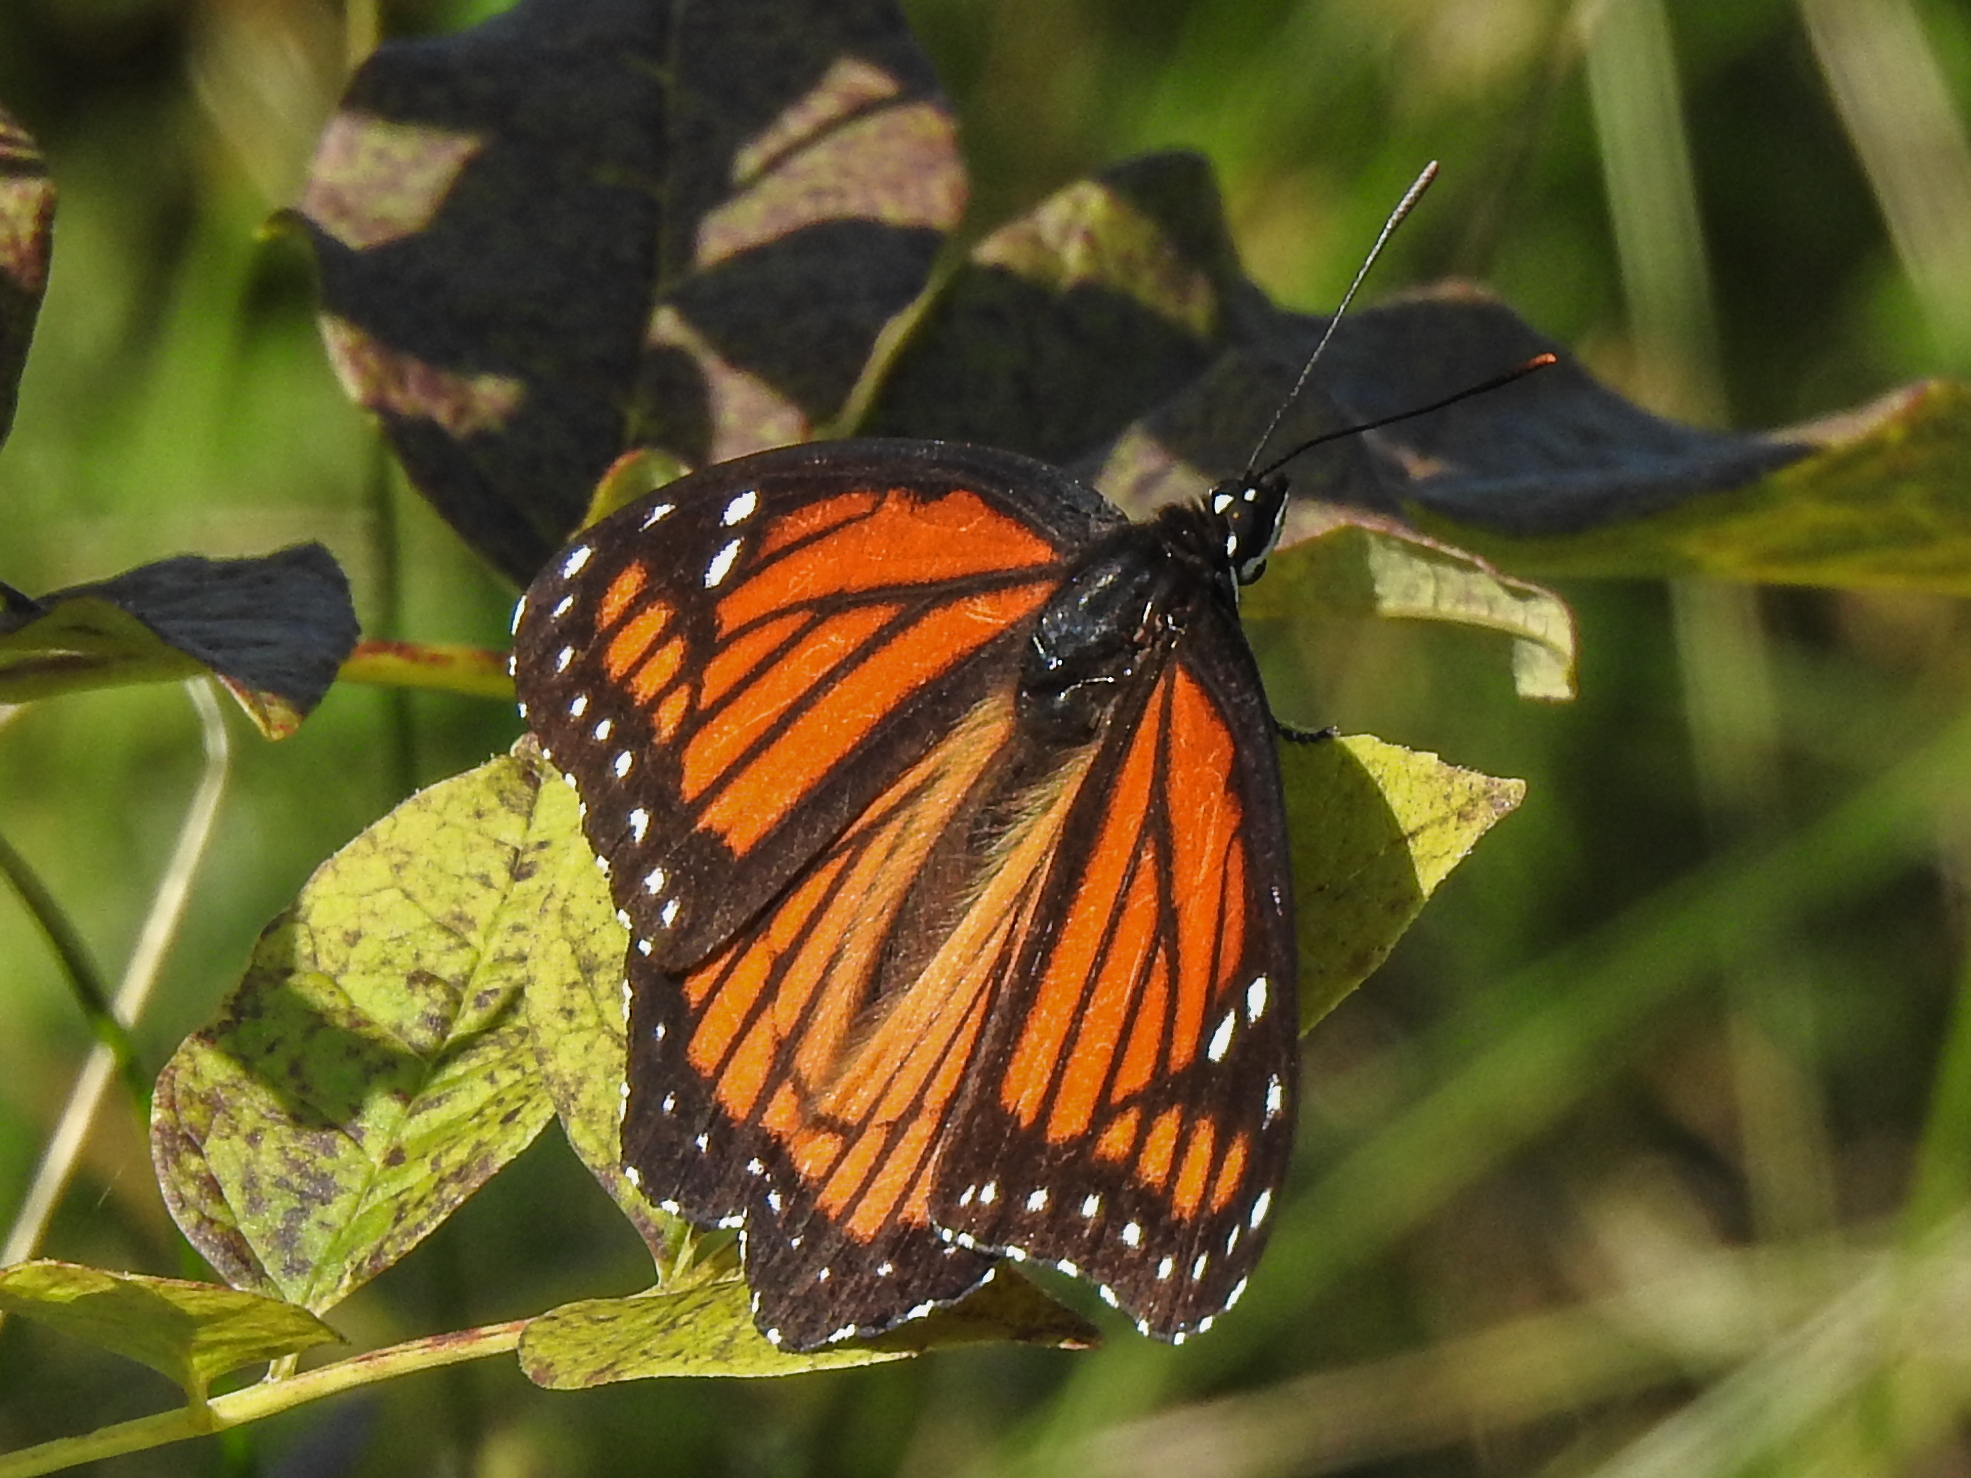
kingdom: Animalia
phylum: Arthropoda
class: Insecta
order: Lepidoptera
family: Nymphalidae
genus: Limenitis
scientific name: Limenitis archippus
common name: Viceroy
